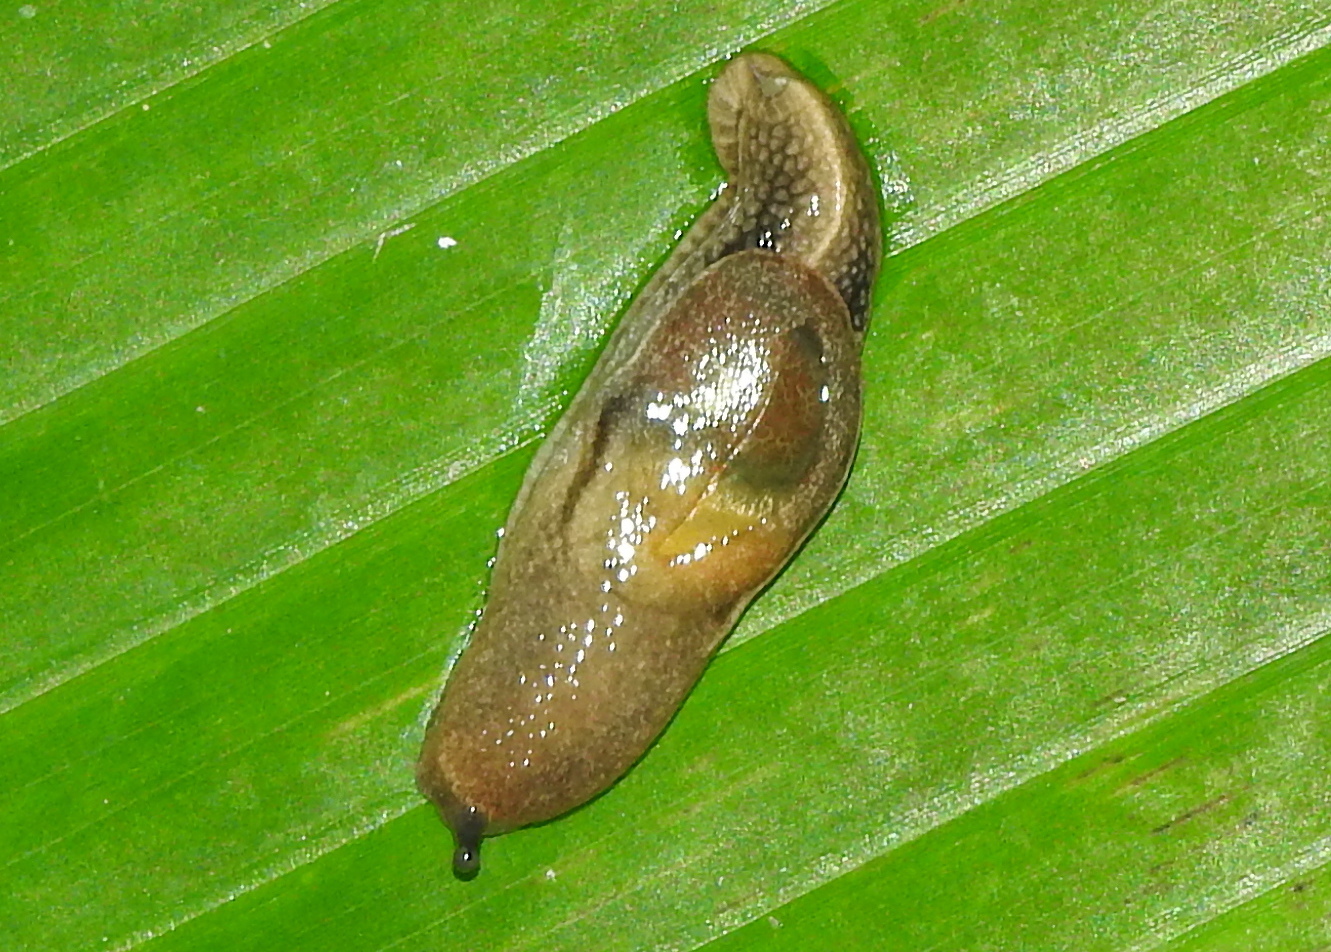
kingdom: Animalia
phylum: Mollusca
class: Gastropoda
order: Stylommatophora
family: Ariophantidae
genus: Parmarion
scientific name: Parmarion martensi
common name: Semi-slug
